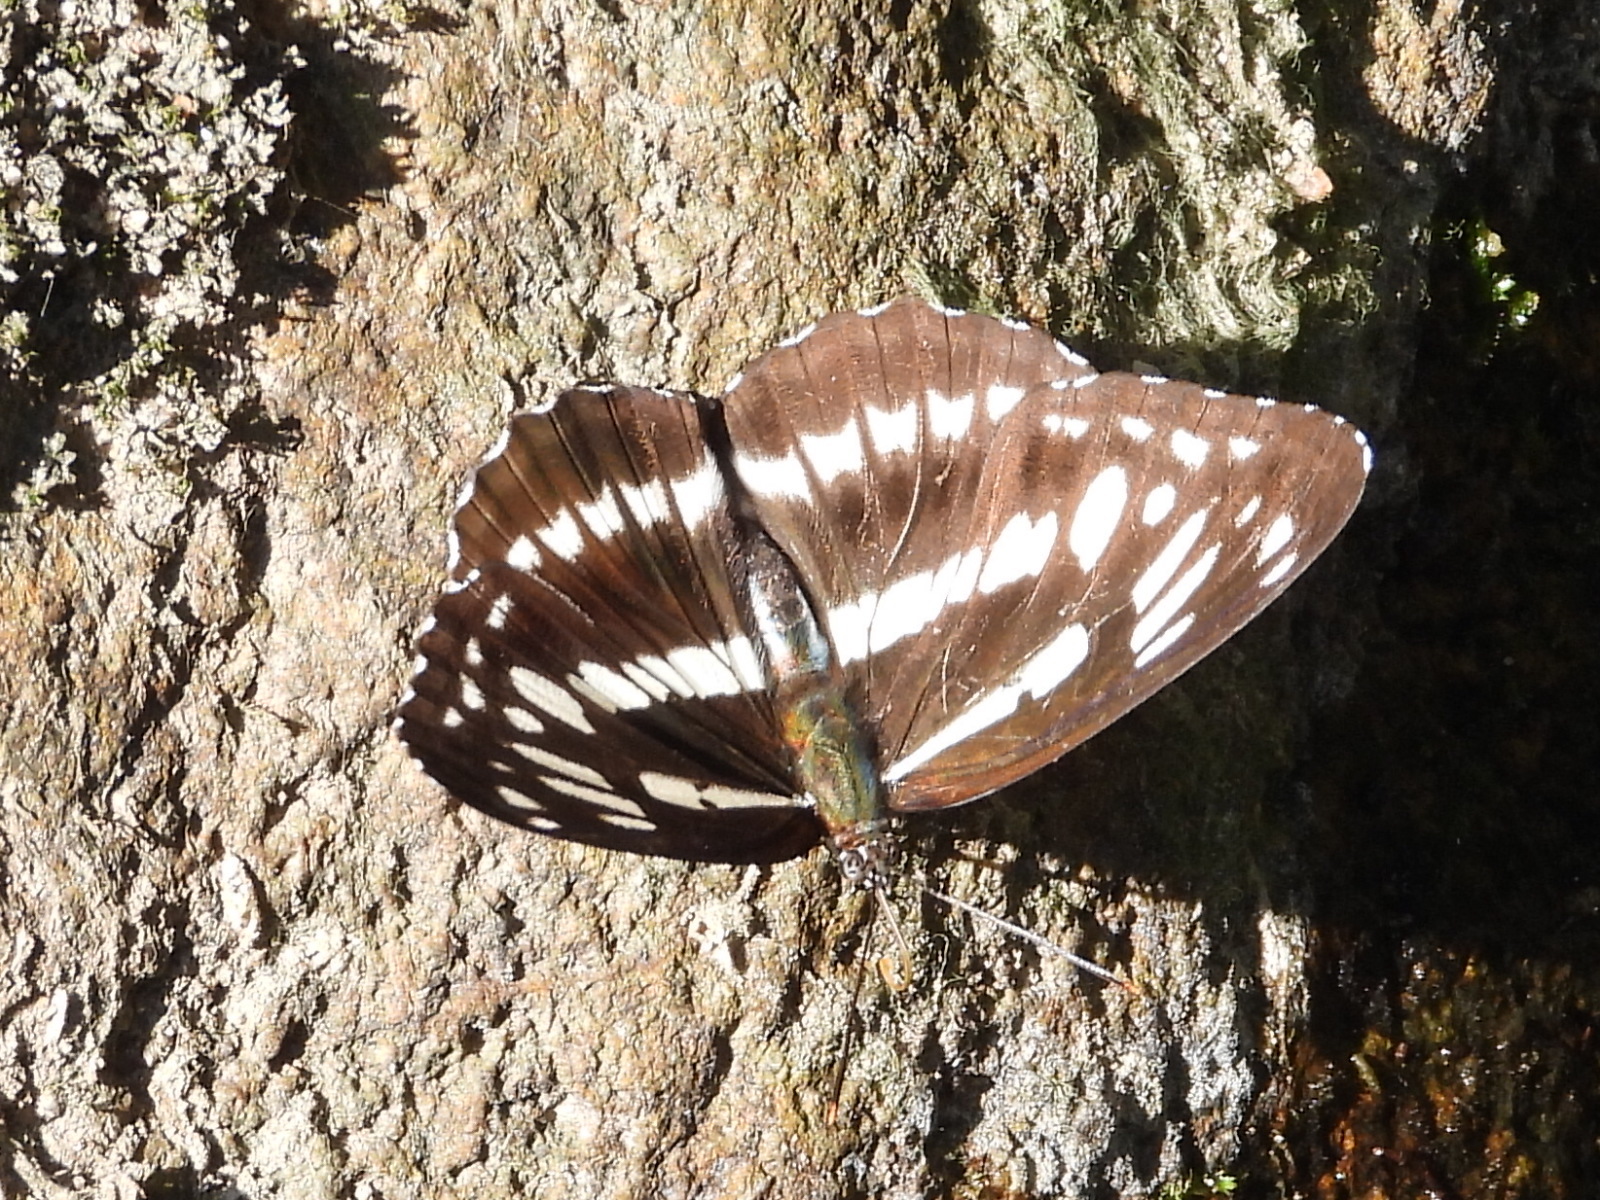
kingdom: Animalia
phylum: Arthropoda
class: Insecta
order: Lepidoptera
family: Nymphalidae
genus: Limenitis
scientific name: Limenitis sulpitia
